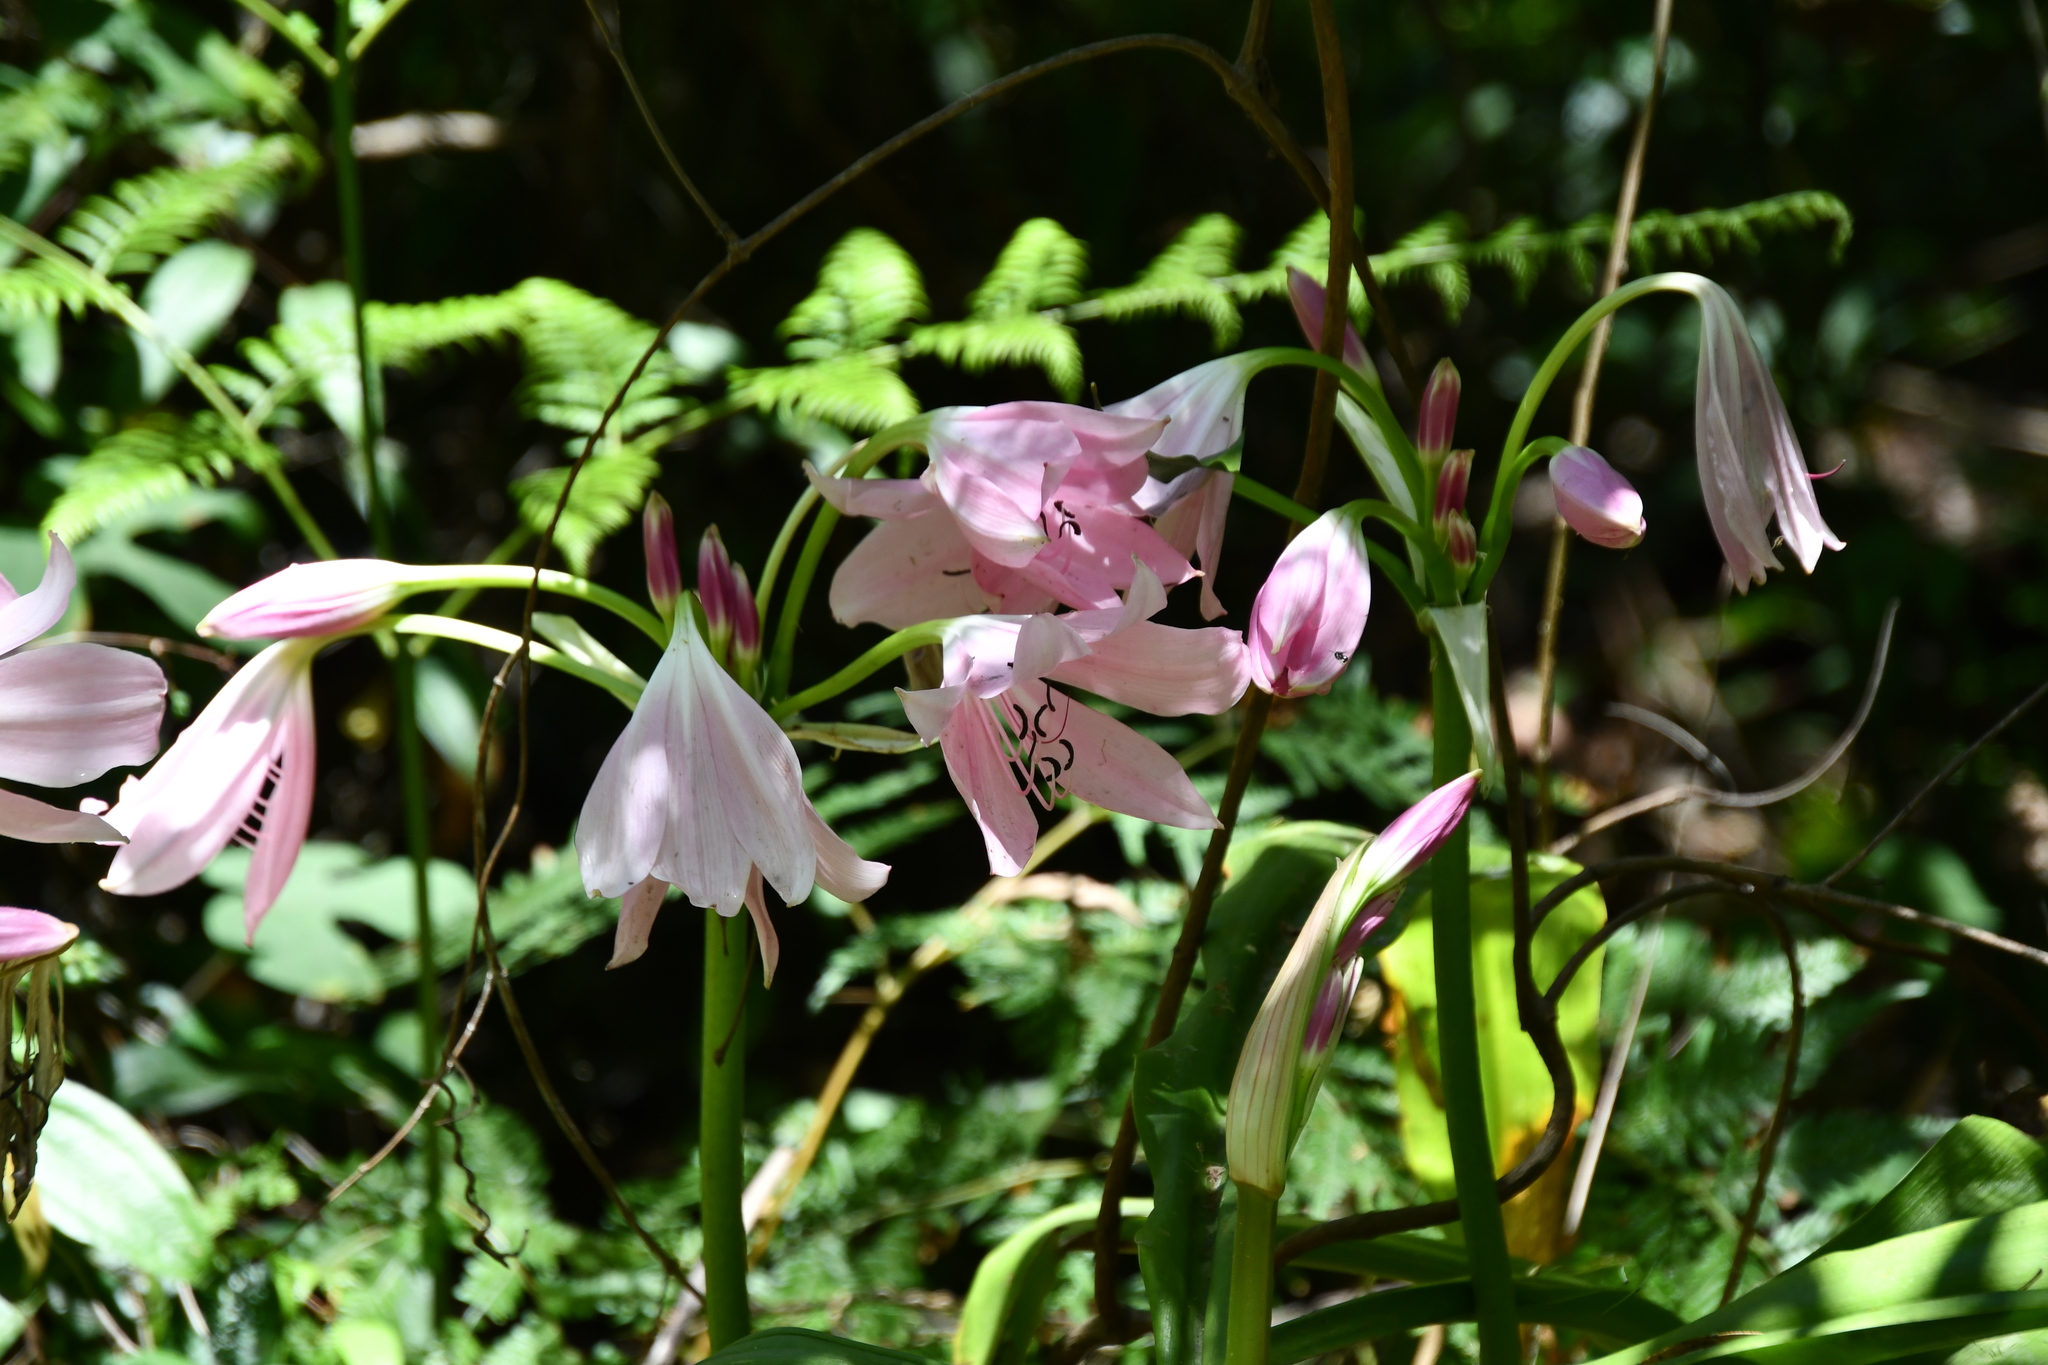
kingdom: Plantae
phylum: Tracheophyta
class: Liliopsida
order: Asparagales
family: Amaryllidaceae
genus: Crinum
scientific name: Crinum moorei
